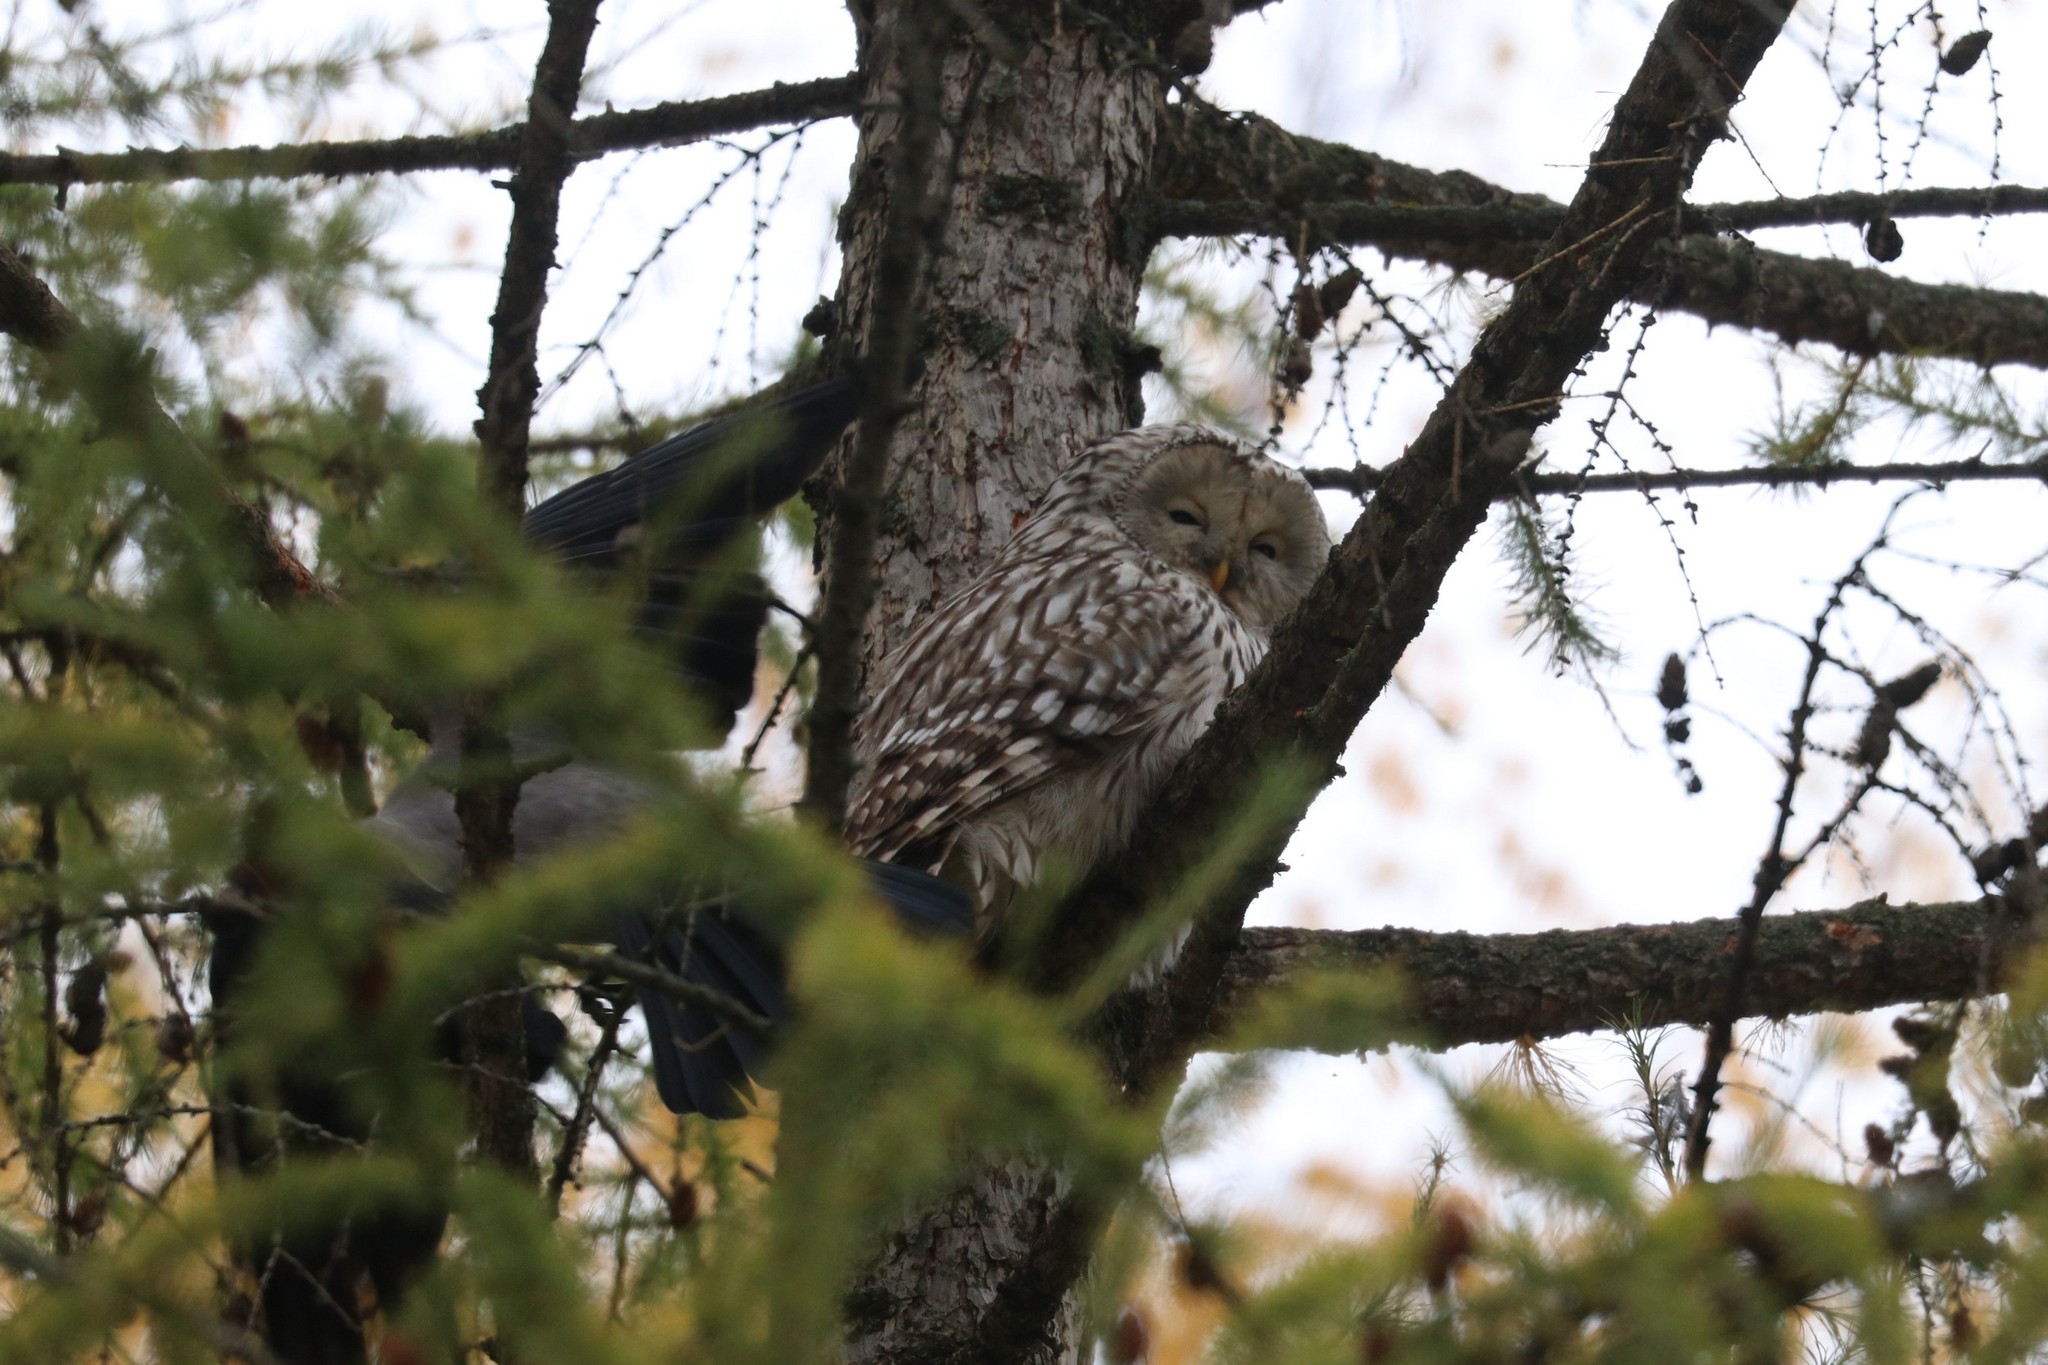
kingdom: Animalia
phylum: Chordata
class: Aves
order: Strigiformes
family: Strigidae
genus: Strix
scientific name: Strix uralensis
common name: Ural owl
